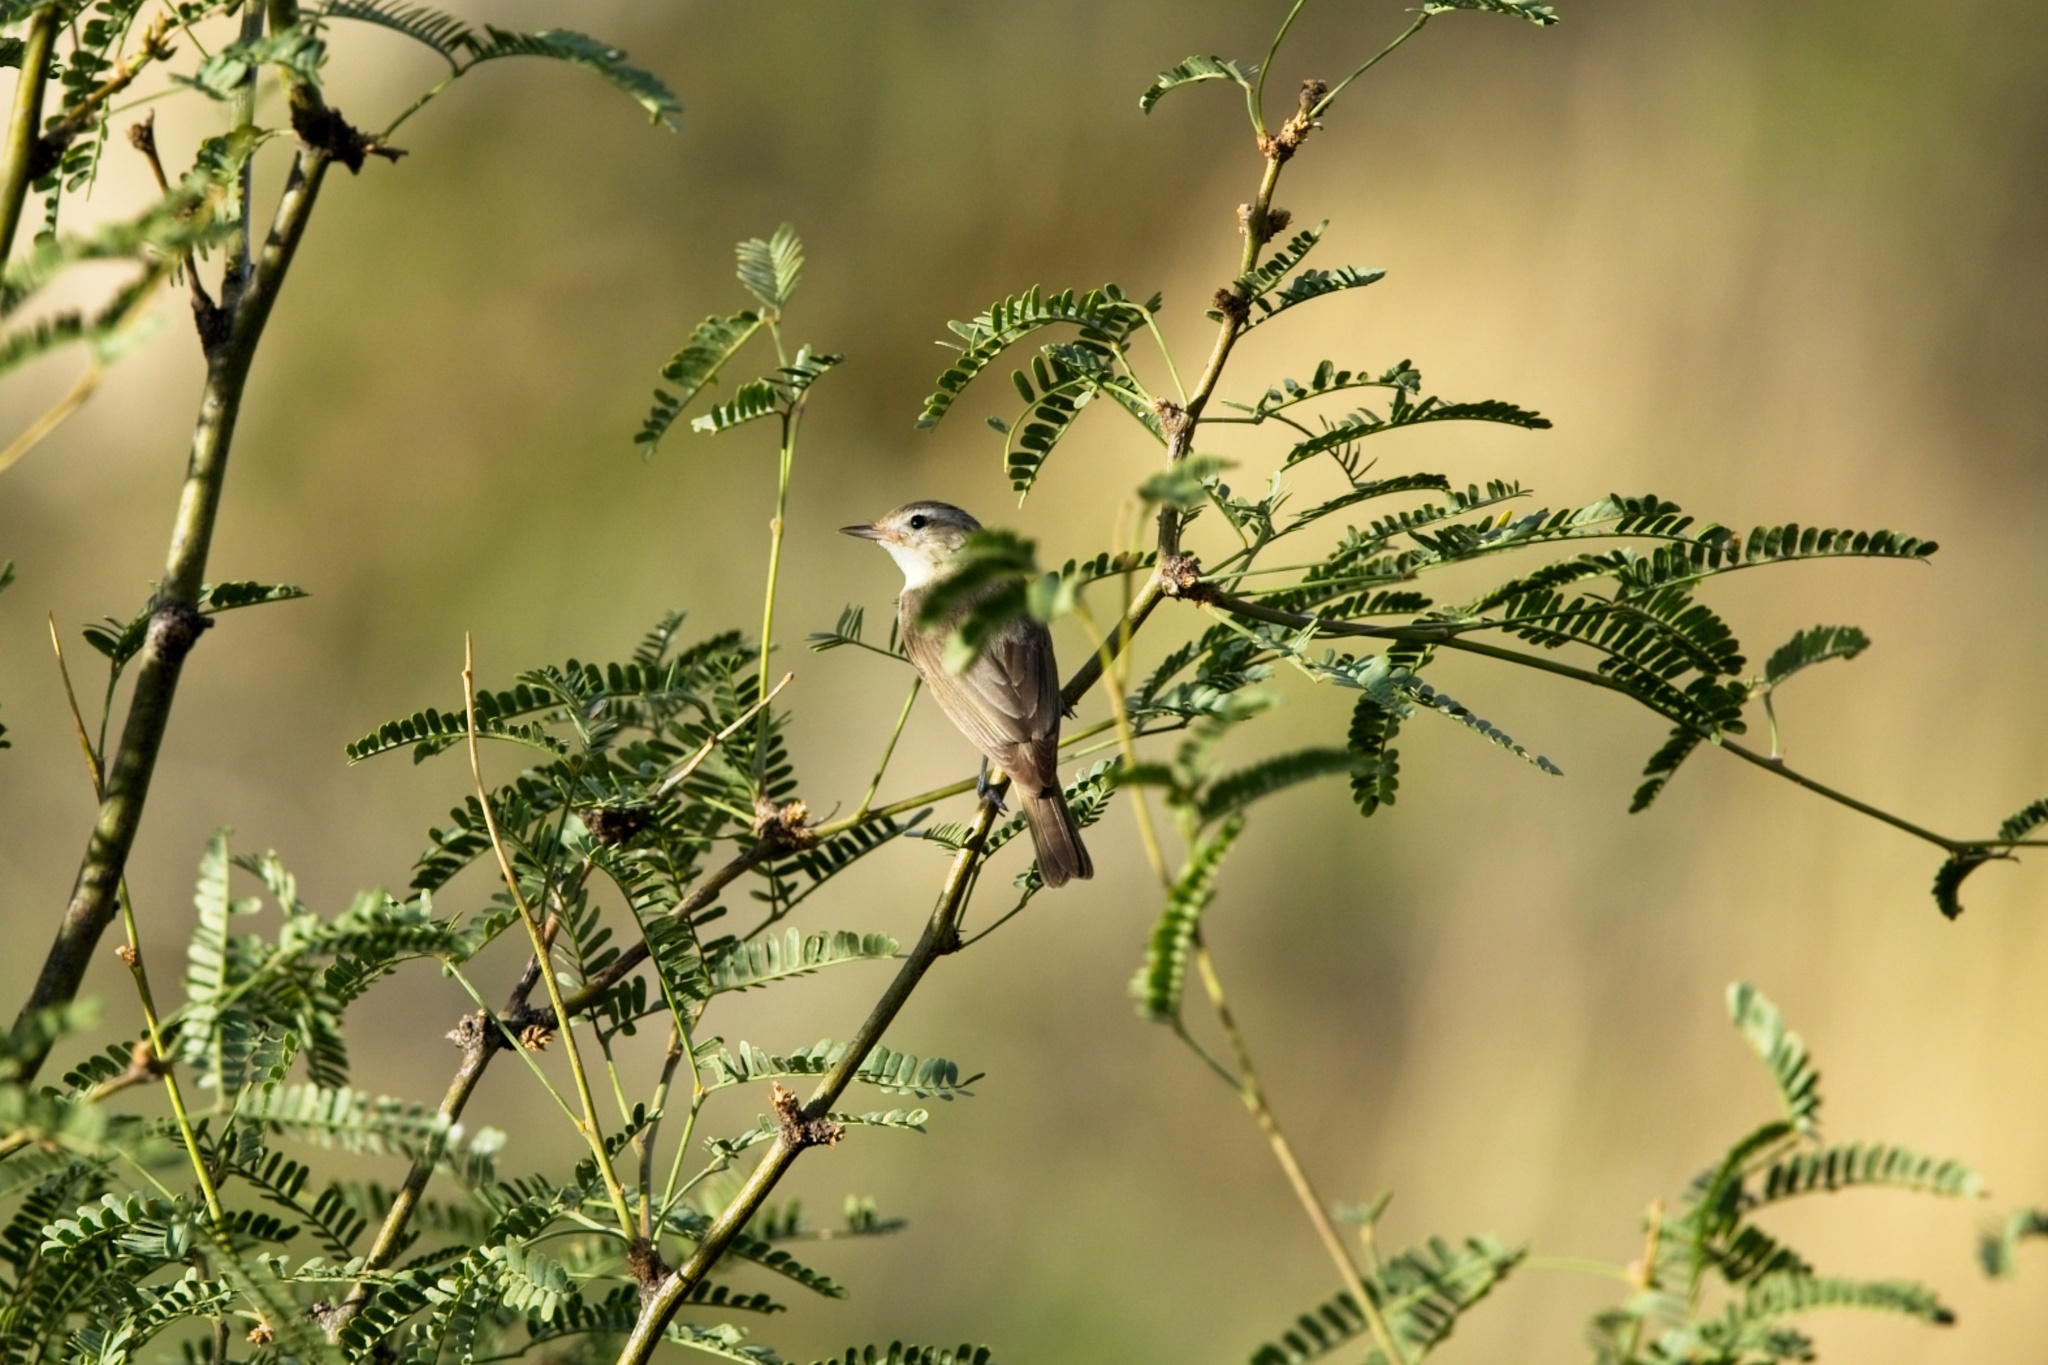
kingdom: Animalia
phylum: Chordata
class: Aves
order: Passeriformes
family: Vireonidae
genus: Vireo
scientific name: Vireo gilvus
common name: Warbling vireo
